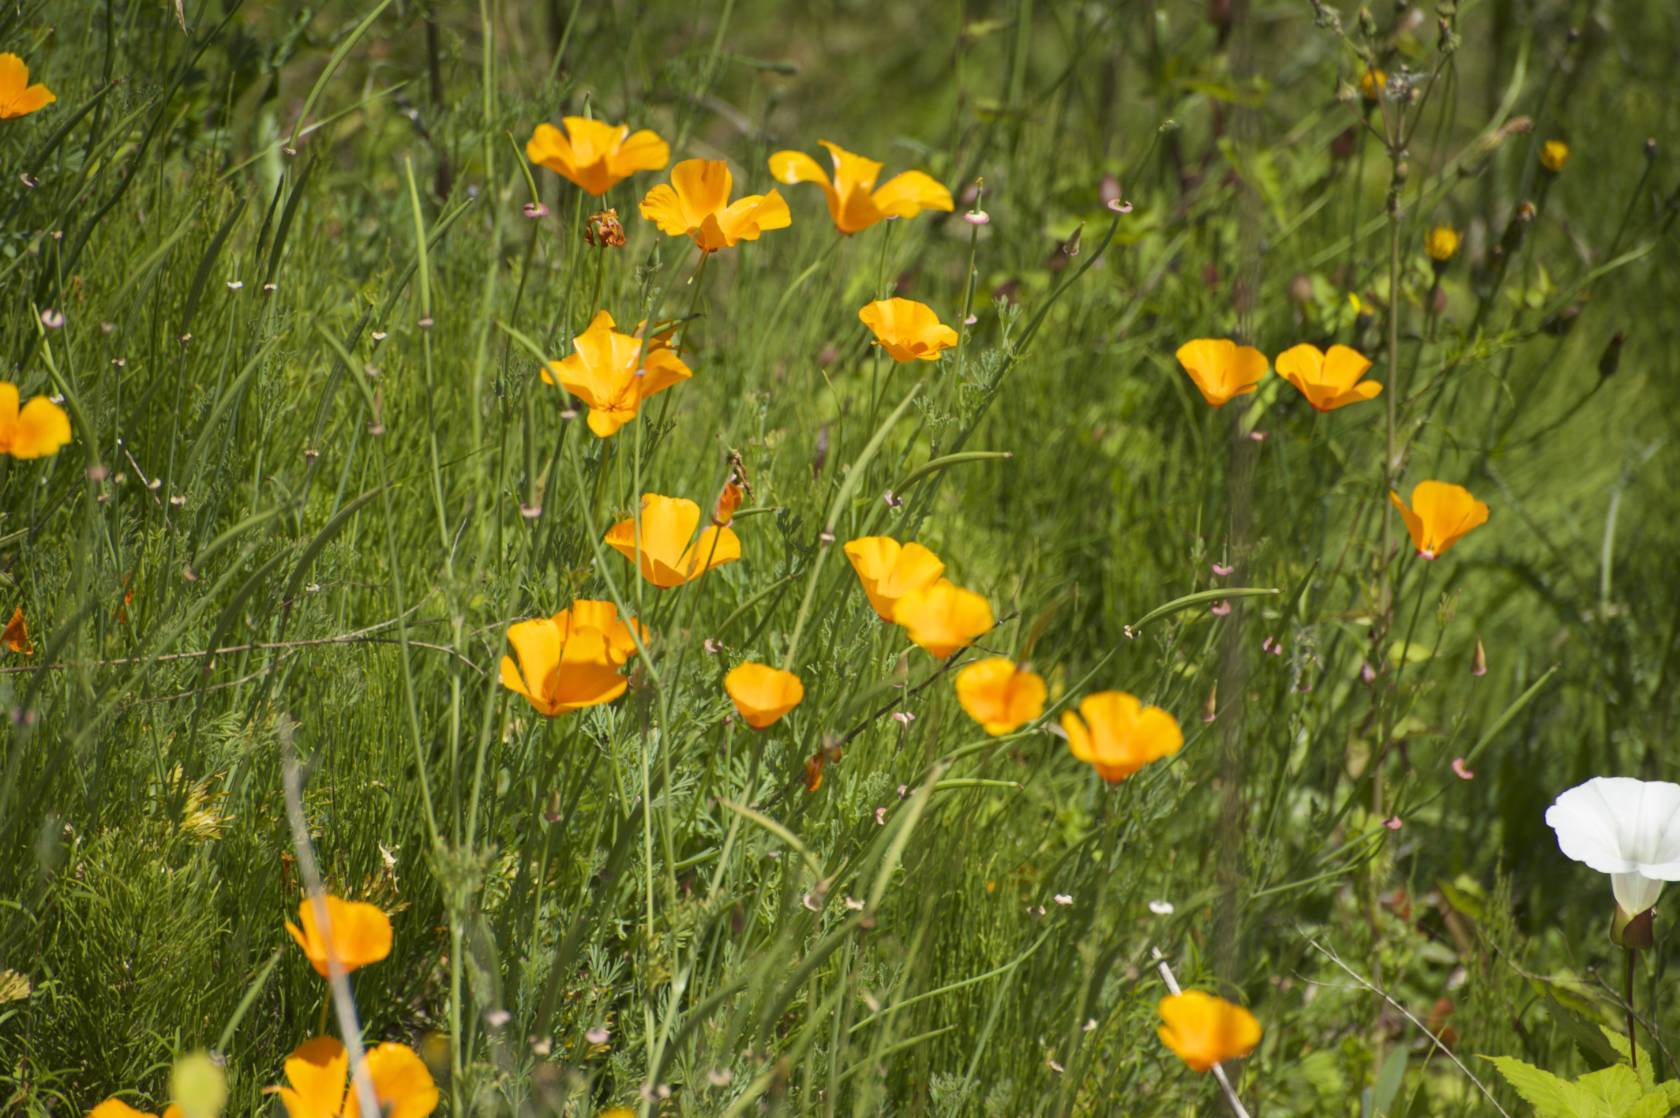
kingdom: Plantae
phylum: Tracheophyta
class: Magnoliopsida
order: Ranunculales
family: Papaveraceae
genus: Eschscholzia
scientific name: Eschscholzia californica
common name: California poppy
